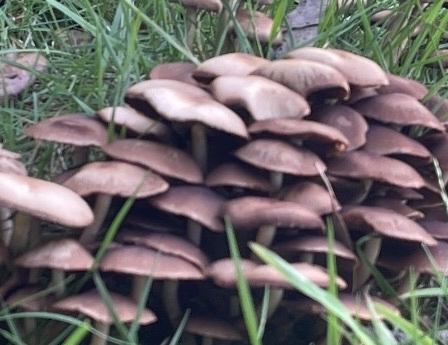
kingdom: Fungi
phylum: Basidiomycota
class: Agaricomycetes
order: Agaricales
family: Psathyrellaceae
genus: Psathyrella
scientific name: Psathyrella piluliformis
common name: Common stump brittlestem
